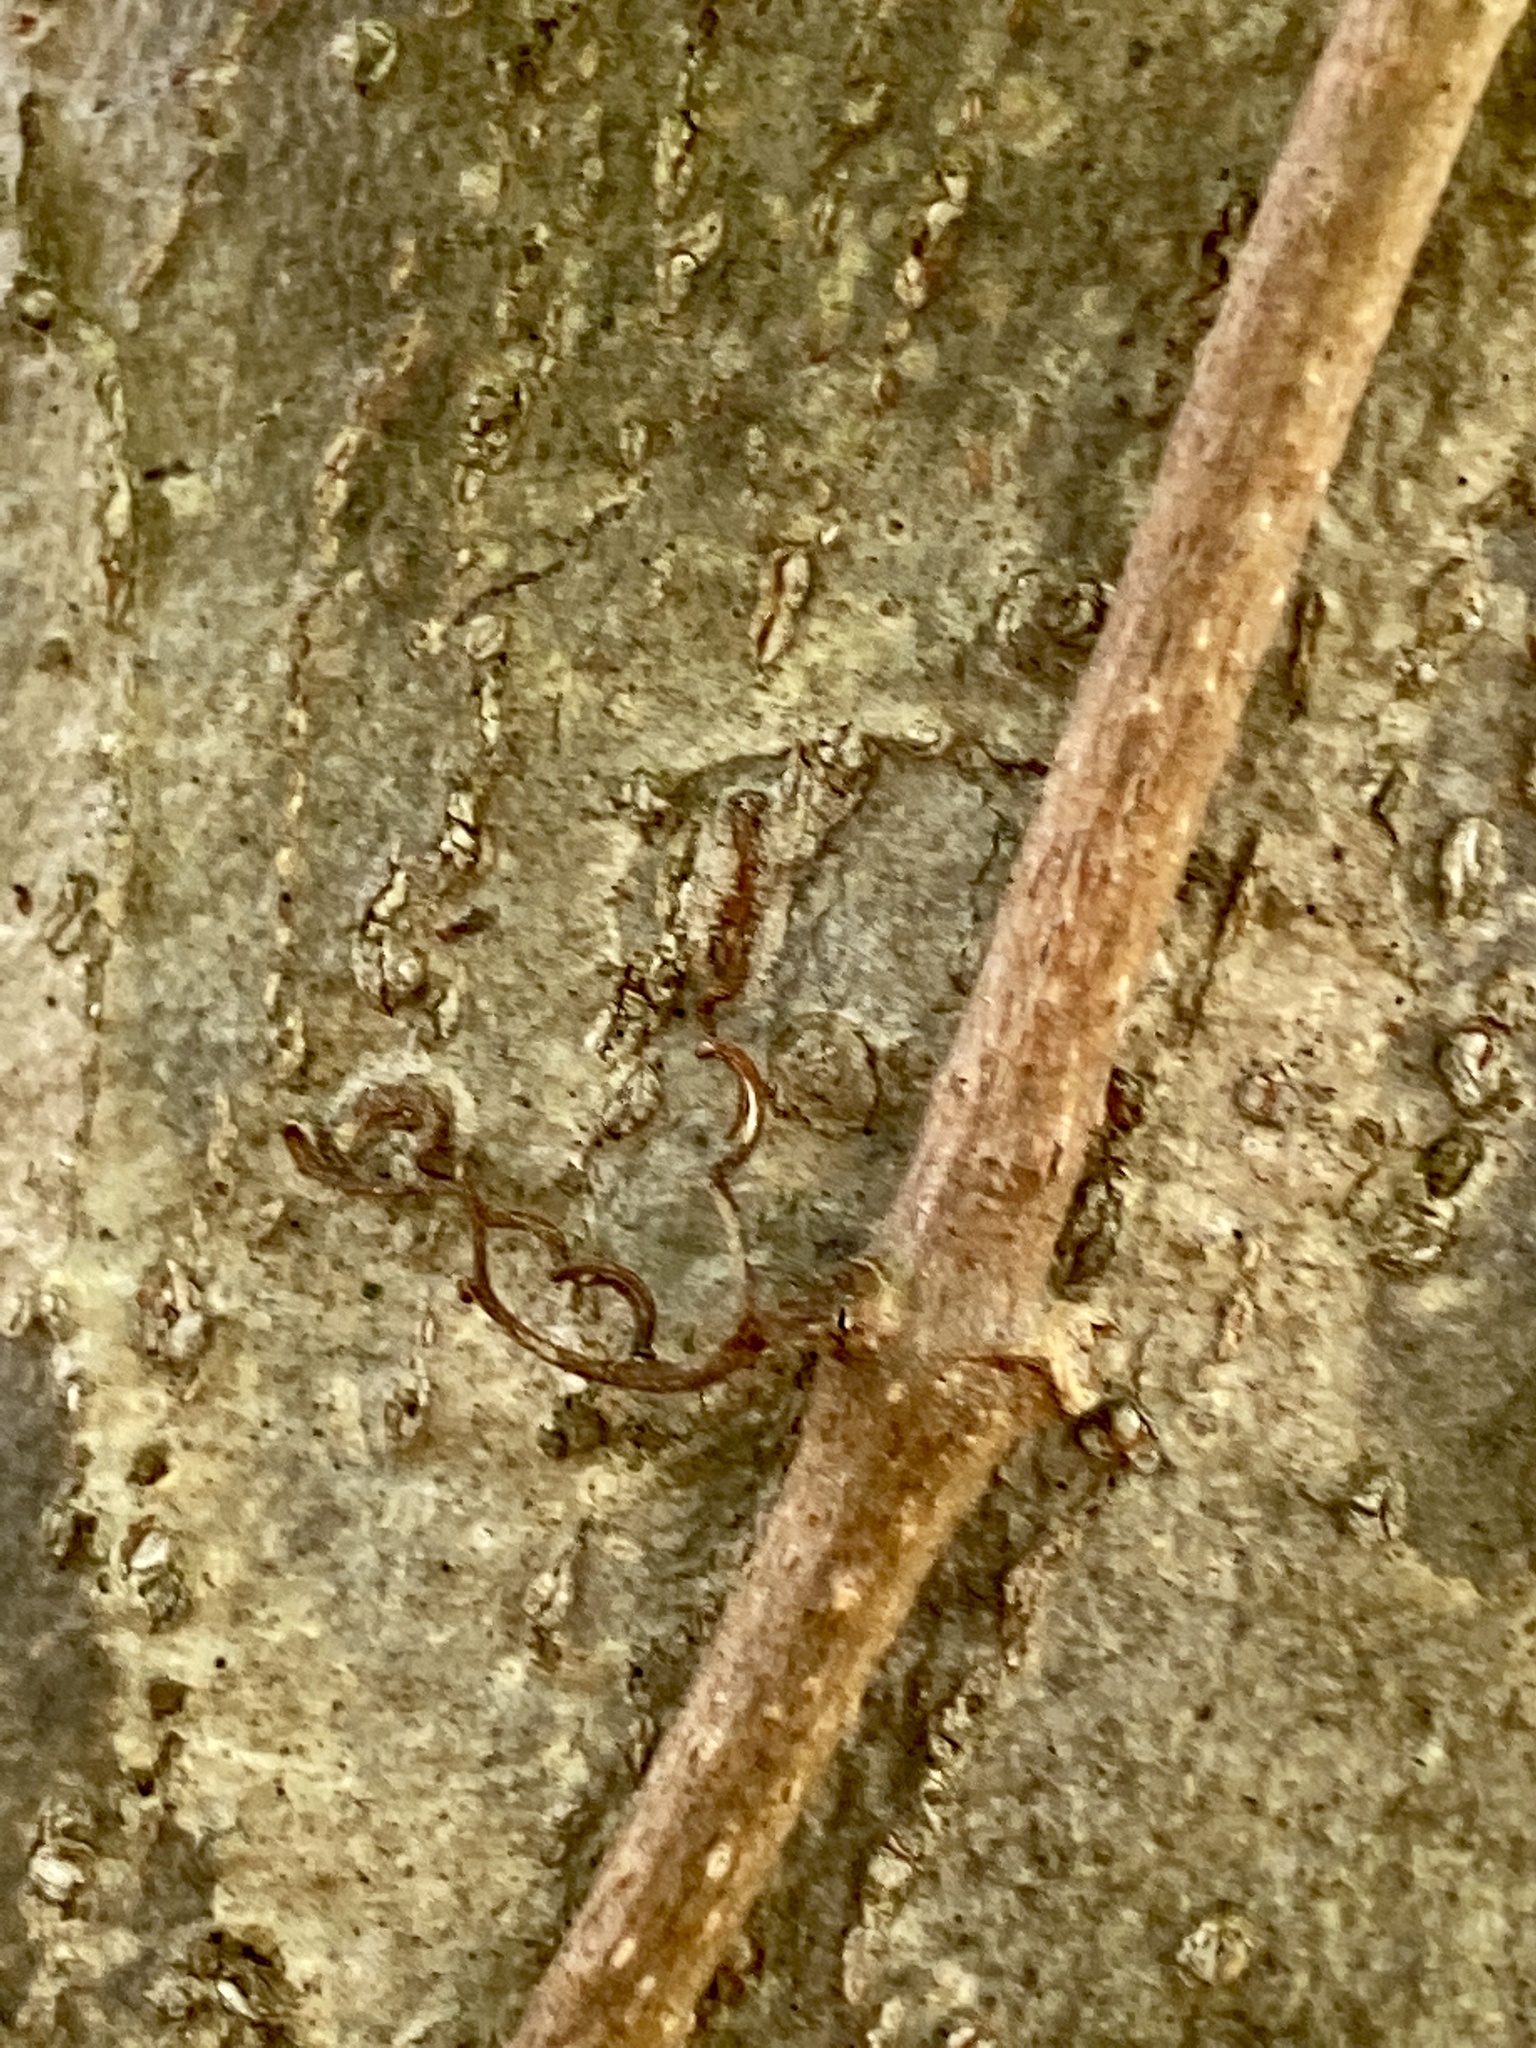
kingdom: Plantae
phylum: Tracheophyta
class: Magnoliopsida
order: Vitales
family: Vitaceae
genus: Parthenocissus
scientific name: Parthenocissus quinquefolia
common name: Virginia-creeper
